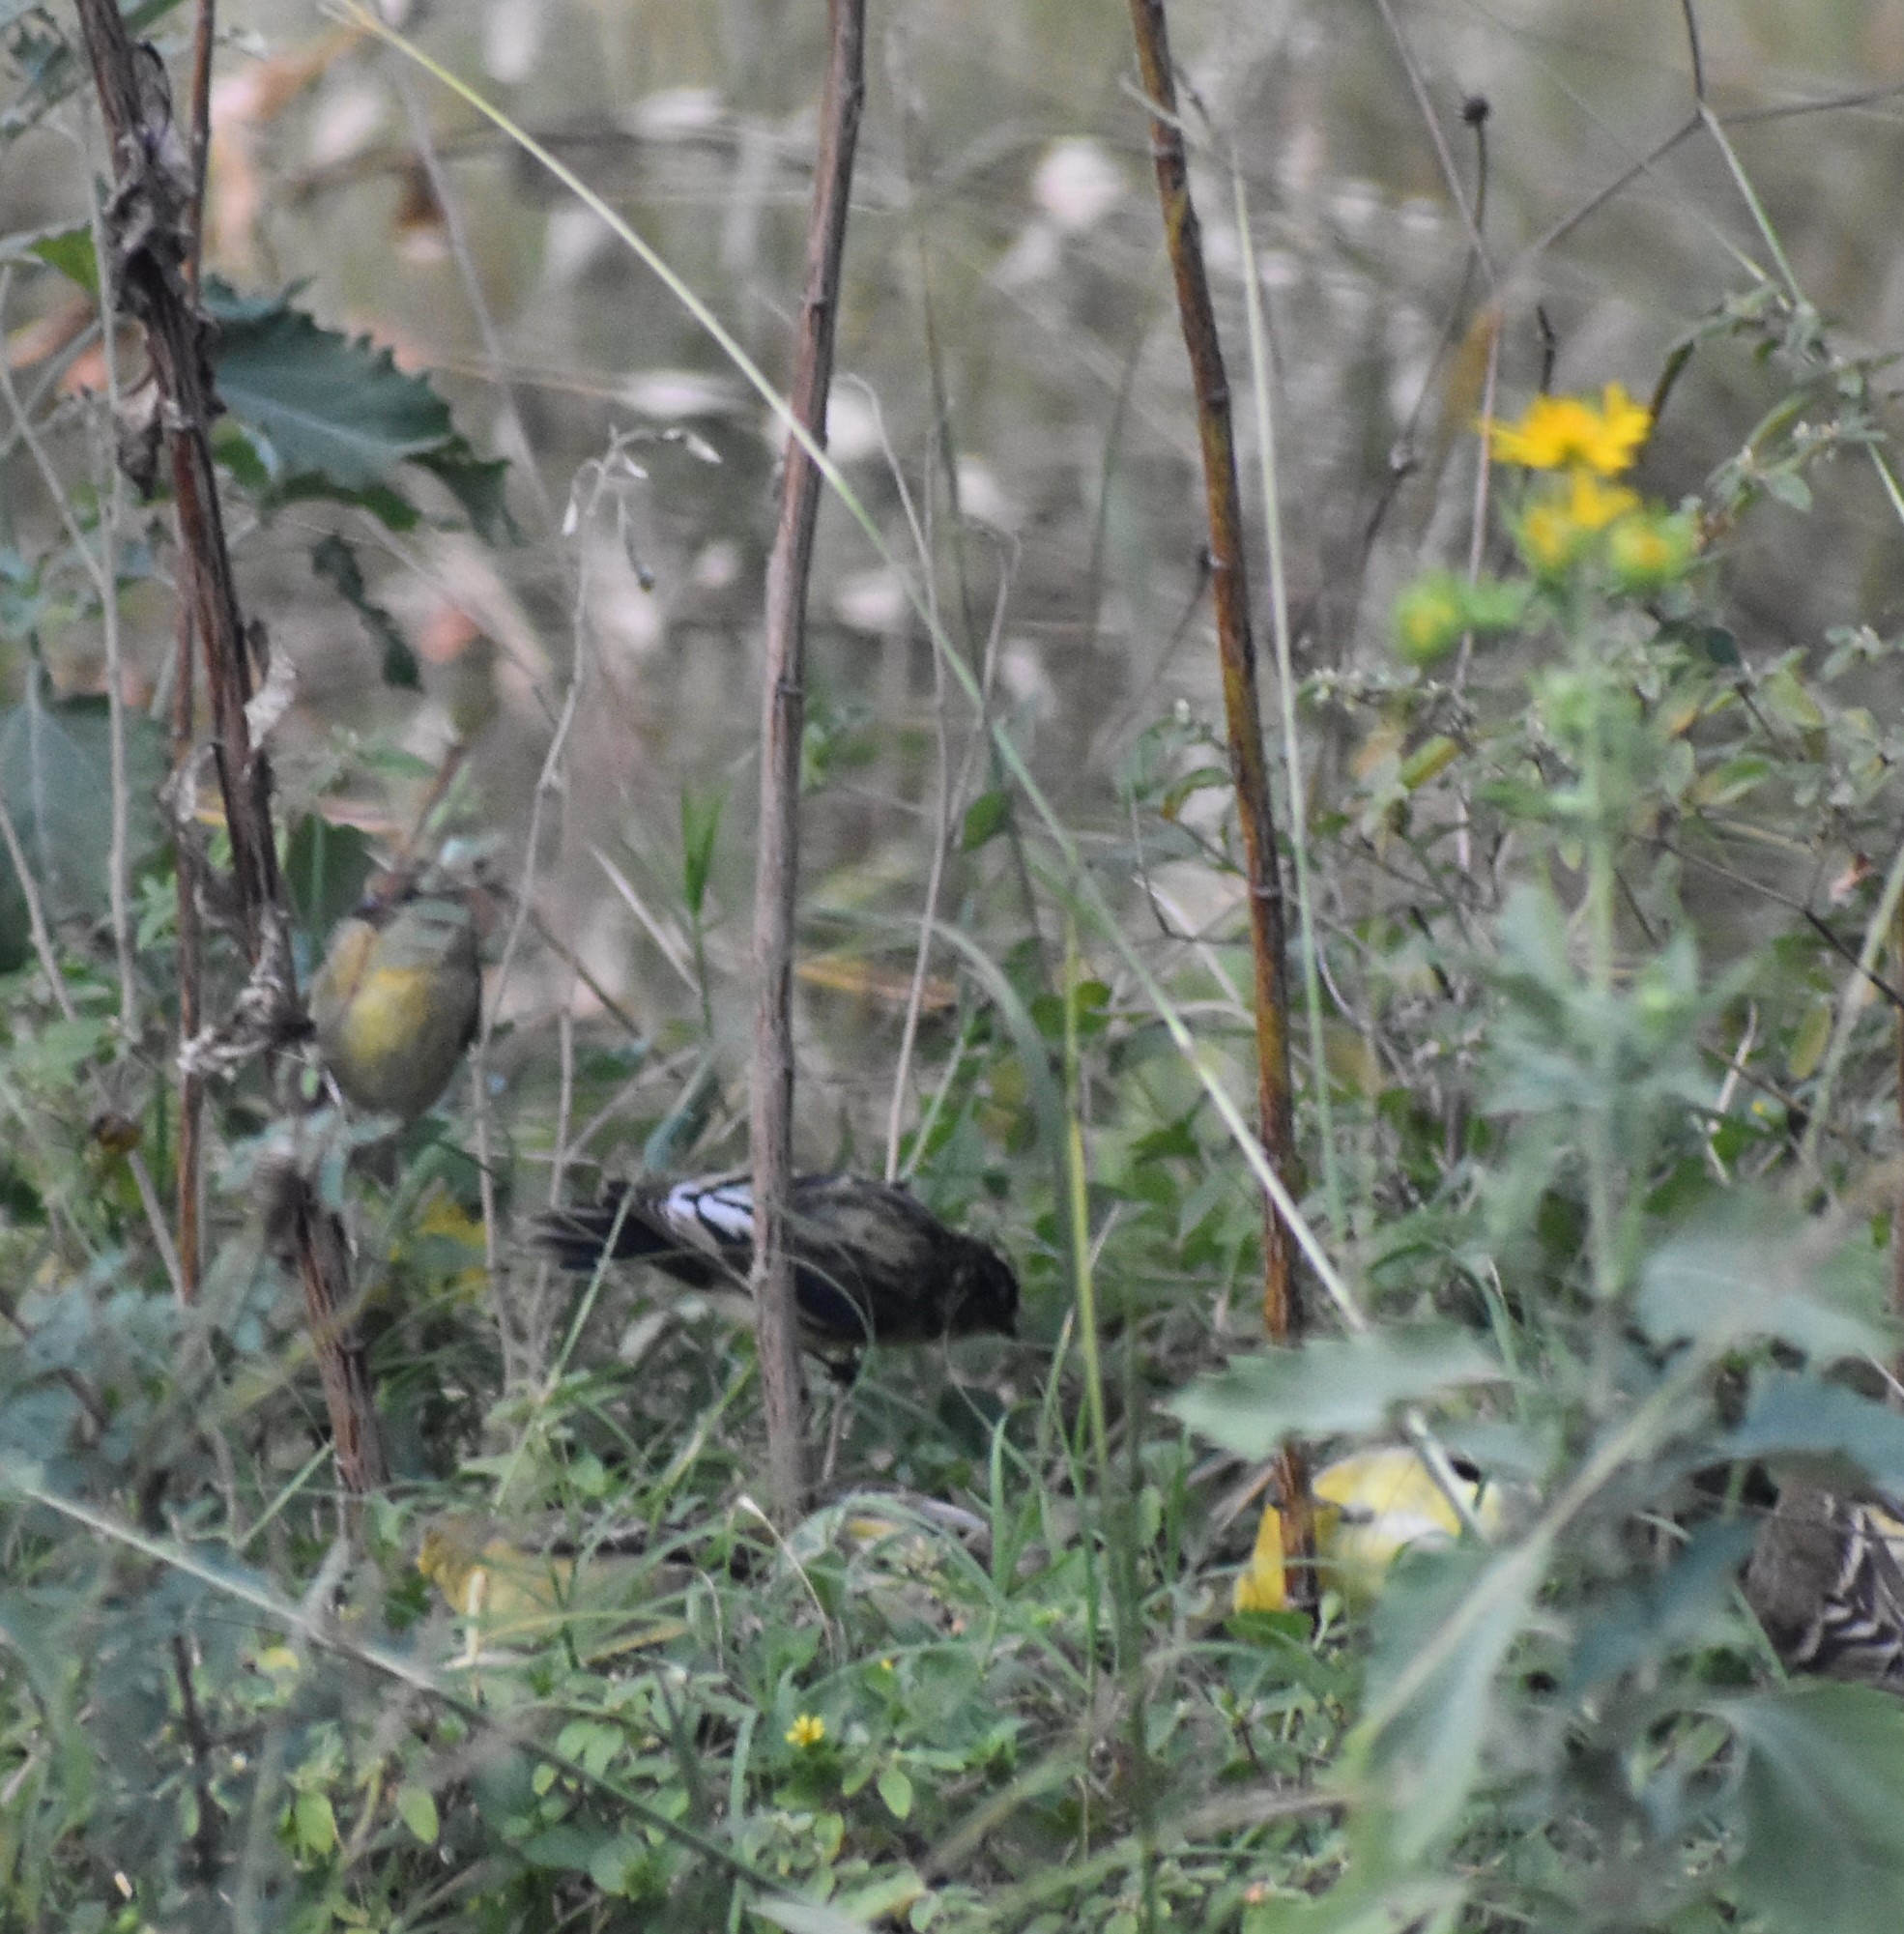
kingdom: Animalia
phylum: Chordata
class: Aves
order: Passeriformes
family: Fringillidae
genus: Spinus
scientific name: Spinus psaltria
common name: Lesser goldfinch
